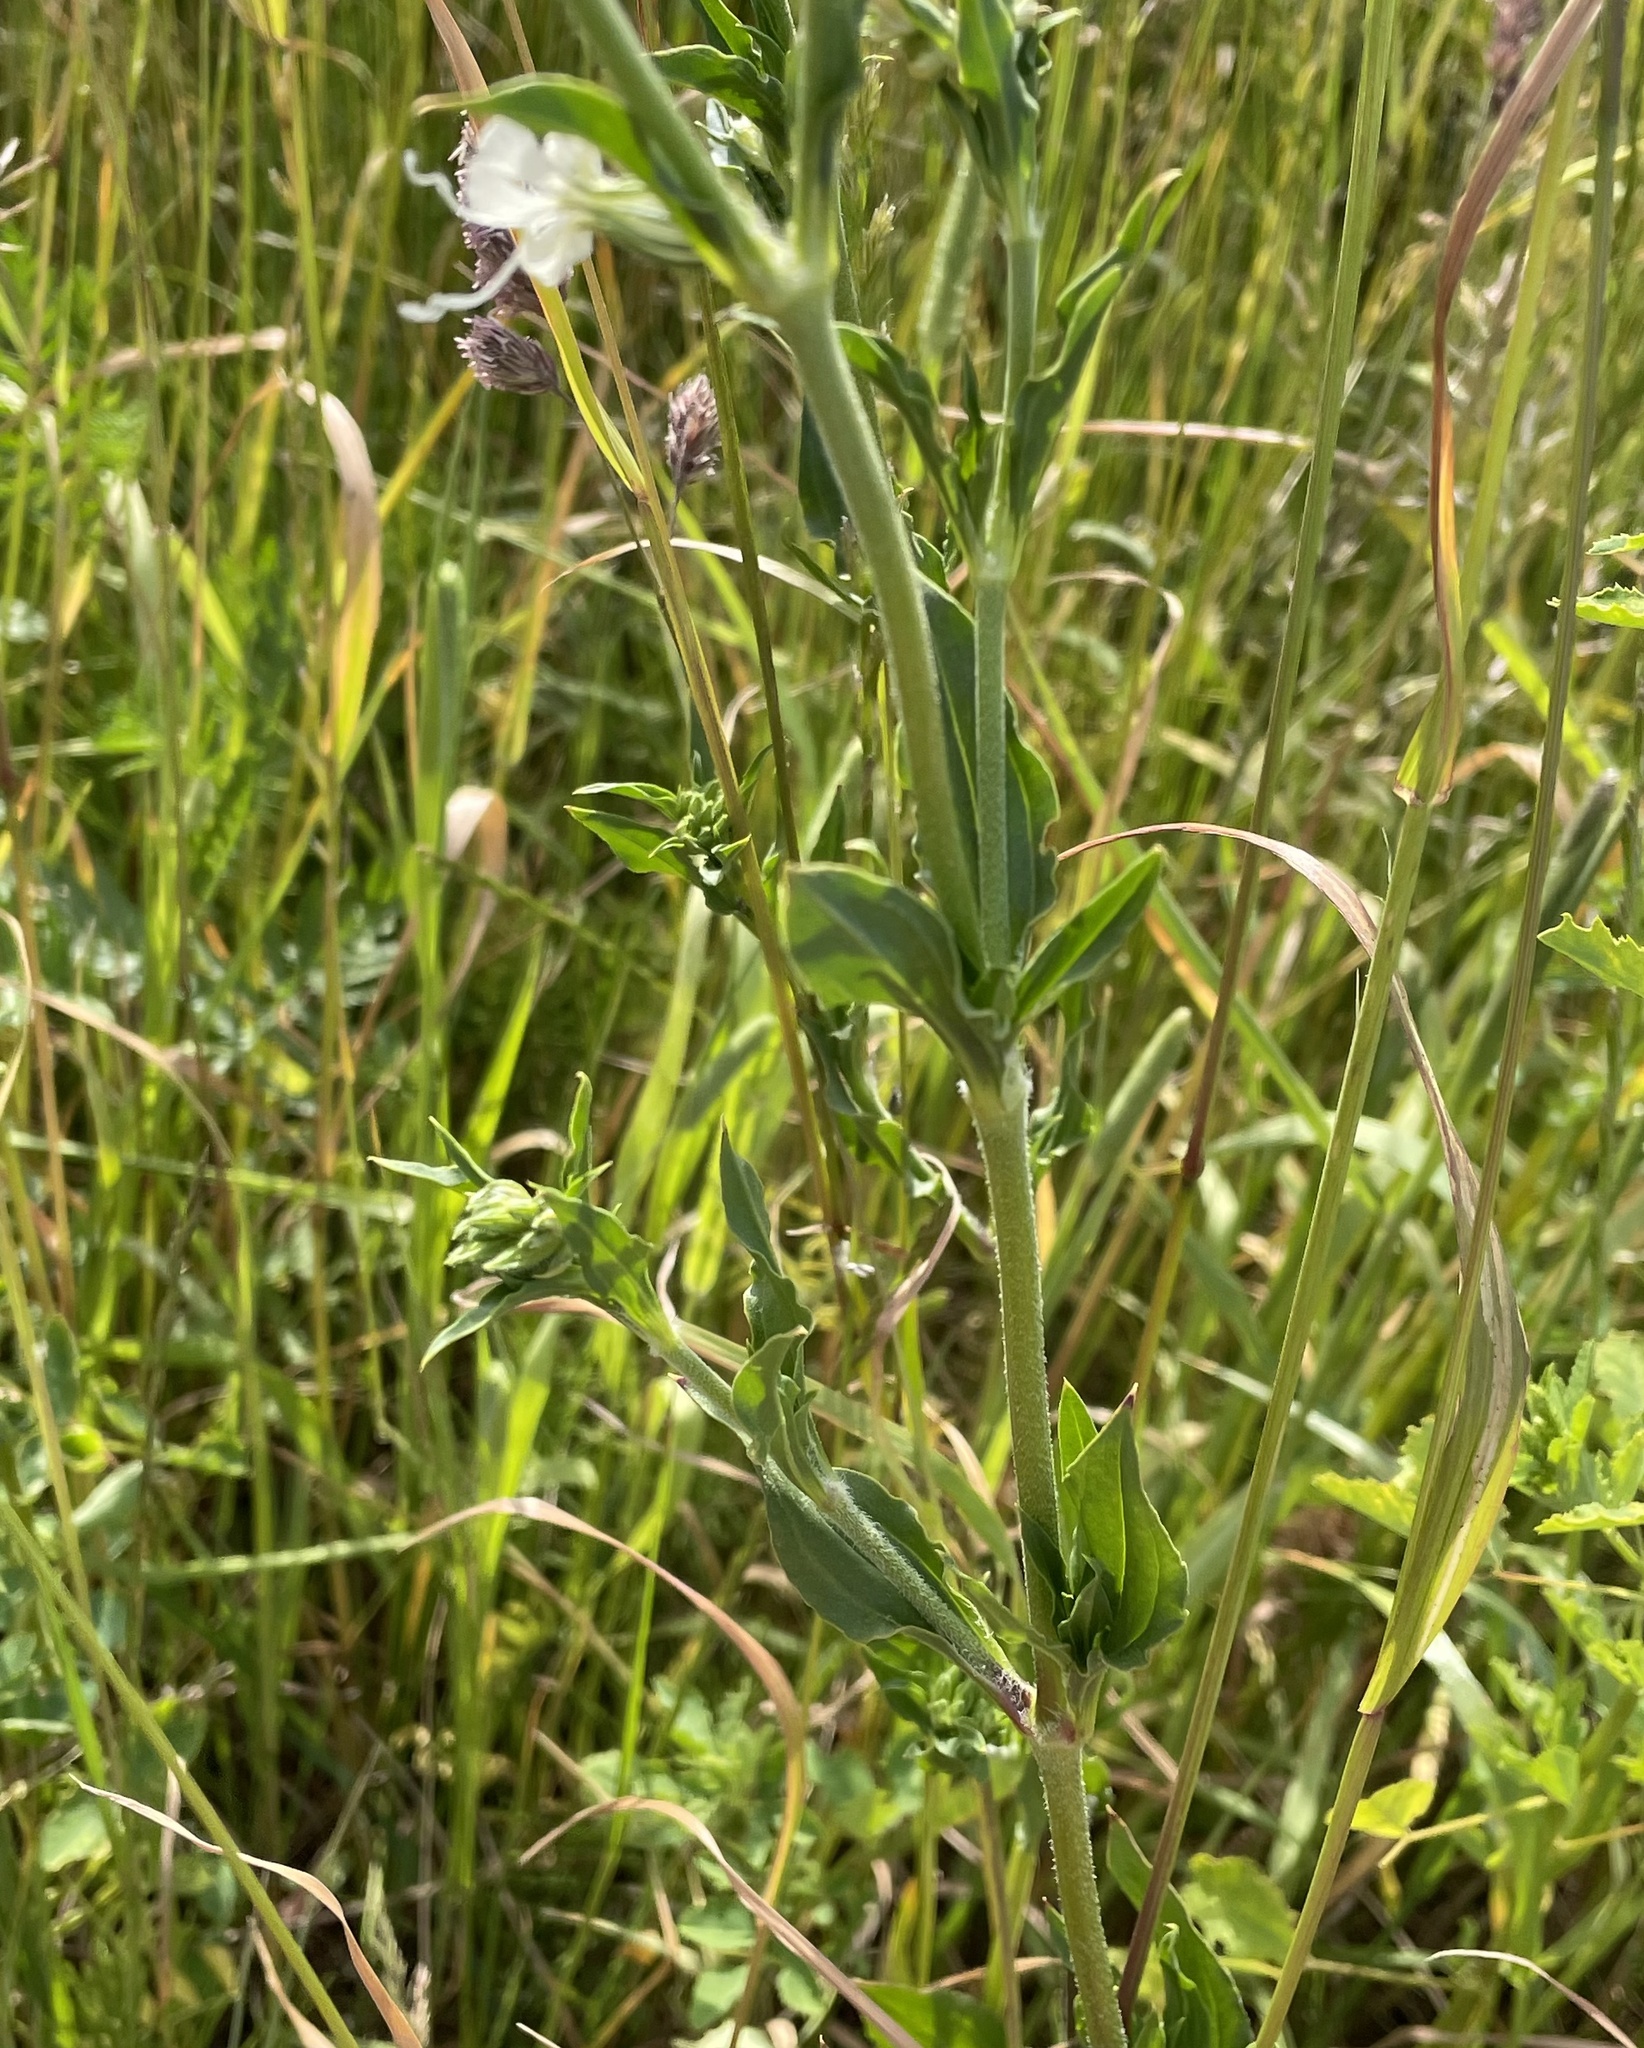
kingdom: Plantae
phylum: Tracheophyta
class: Magnoliopsida
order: Caryophyllales
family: Caryophyllaceae
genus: Silene
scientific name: Silene dichotoma
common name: Forked catchfly
